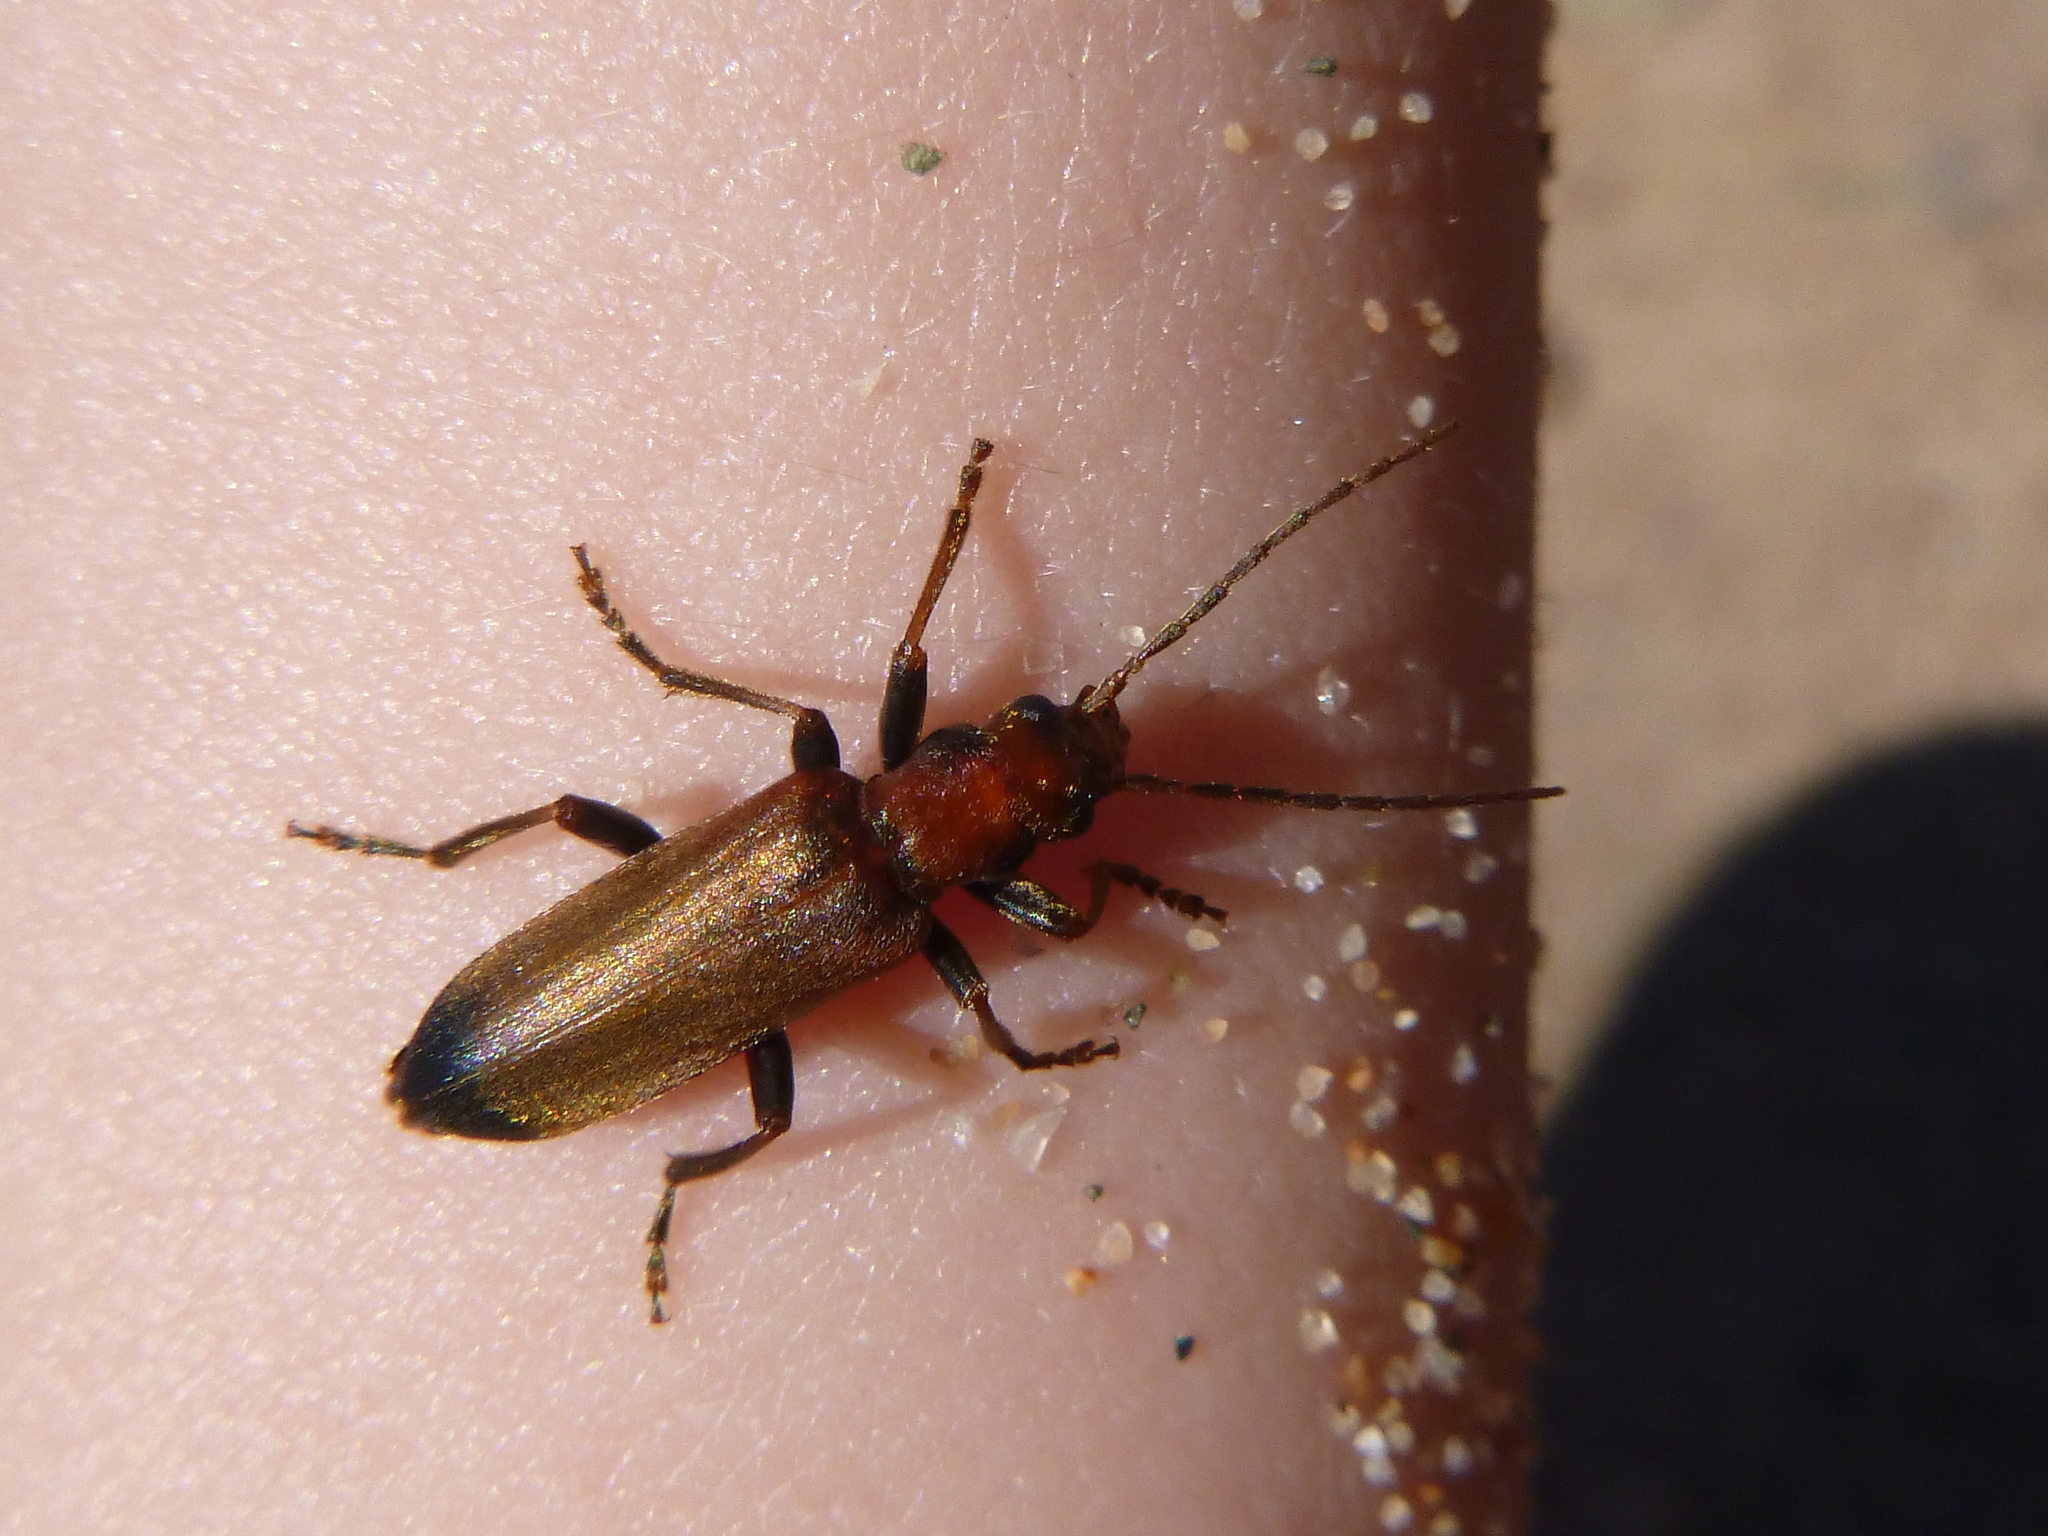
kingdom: Animalia
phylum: Arthropoda
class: Insecta
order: Coleoptera
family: Oedemeridae
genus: Nacerdes
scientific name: Nacerdes melanura
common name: Wharf borer
